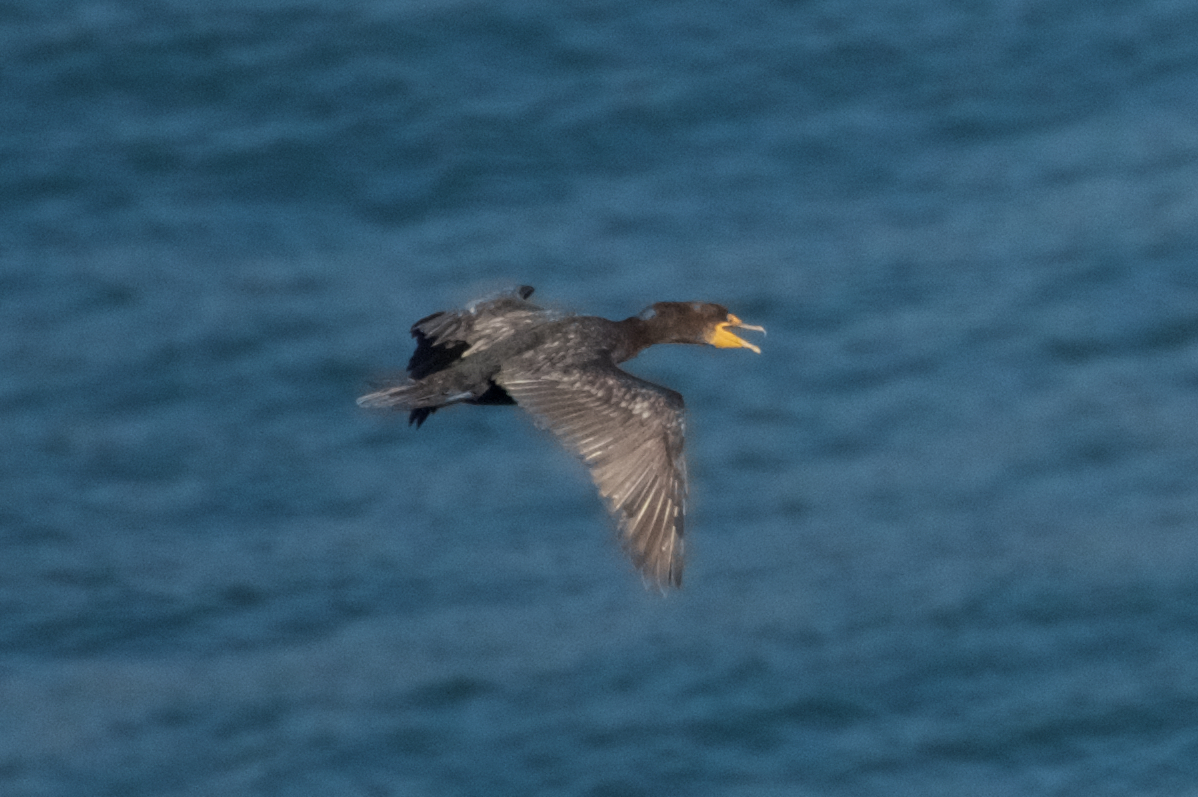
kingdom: Animalia
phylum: Chordata
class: Aves
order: Suliformes
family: Phalacrocoracidae
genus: Phalacrocorax
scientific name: Phalacrocorax auritus
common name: Double-crested cormorant
